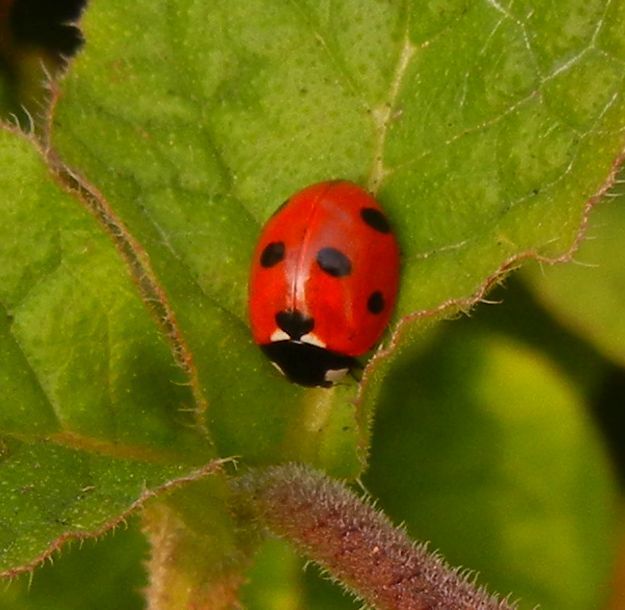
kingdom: Animalia
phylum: Arthropoda
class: Insecta
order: Coleoptera
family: Coccinellidae
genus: Coccinella
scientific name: Coccinella septempunctata
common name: Sevenspotted lady beetle
